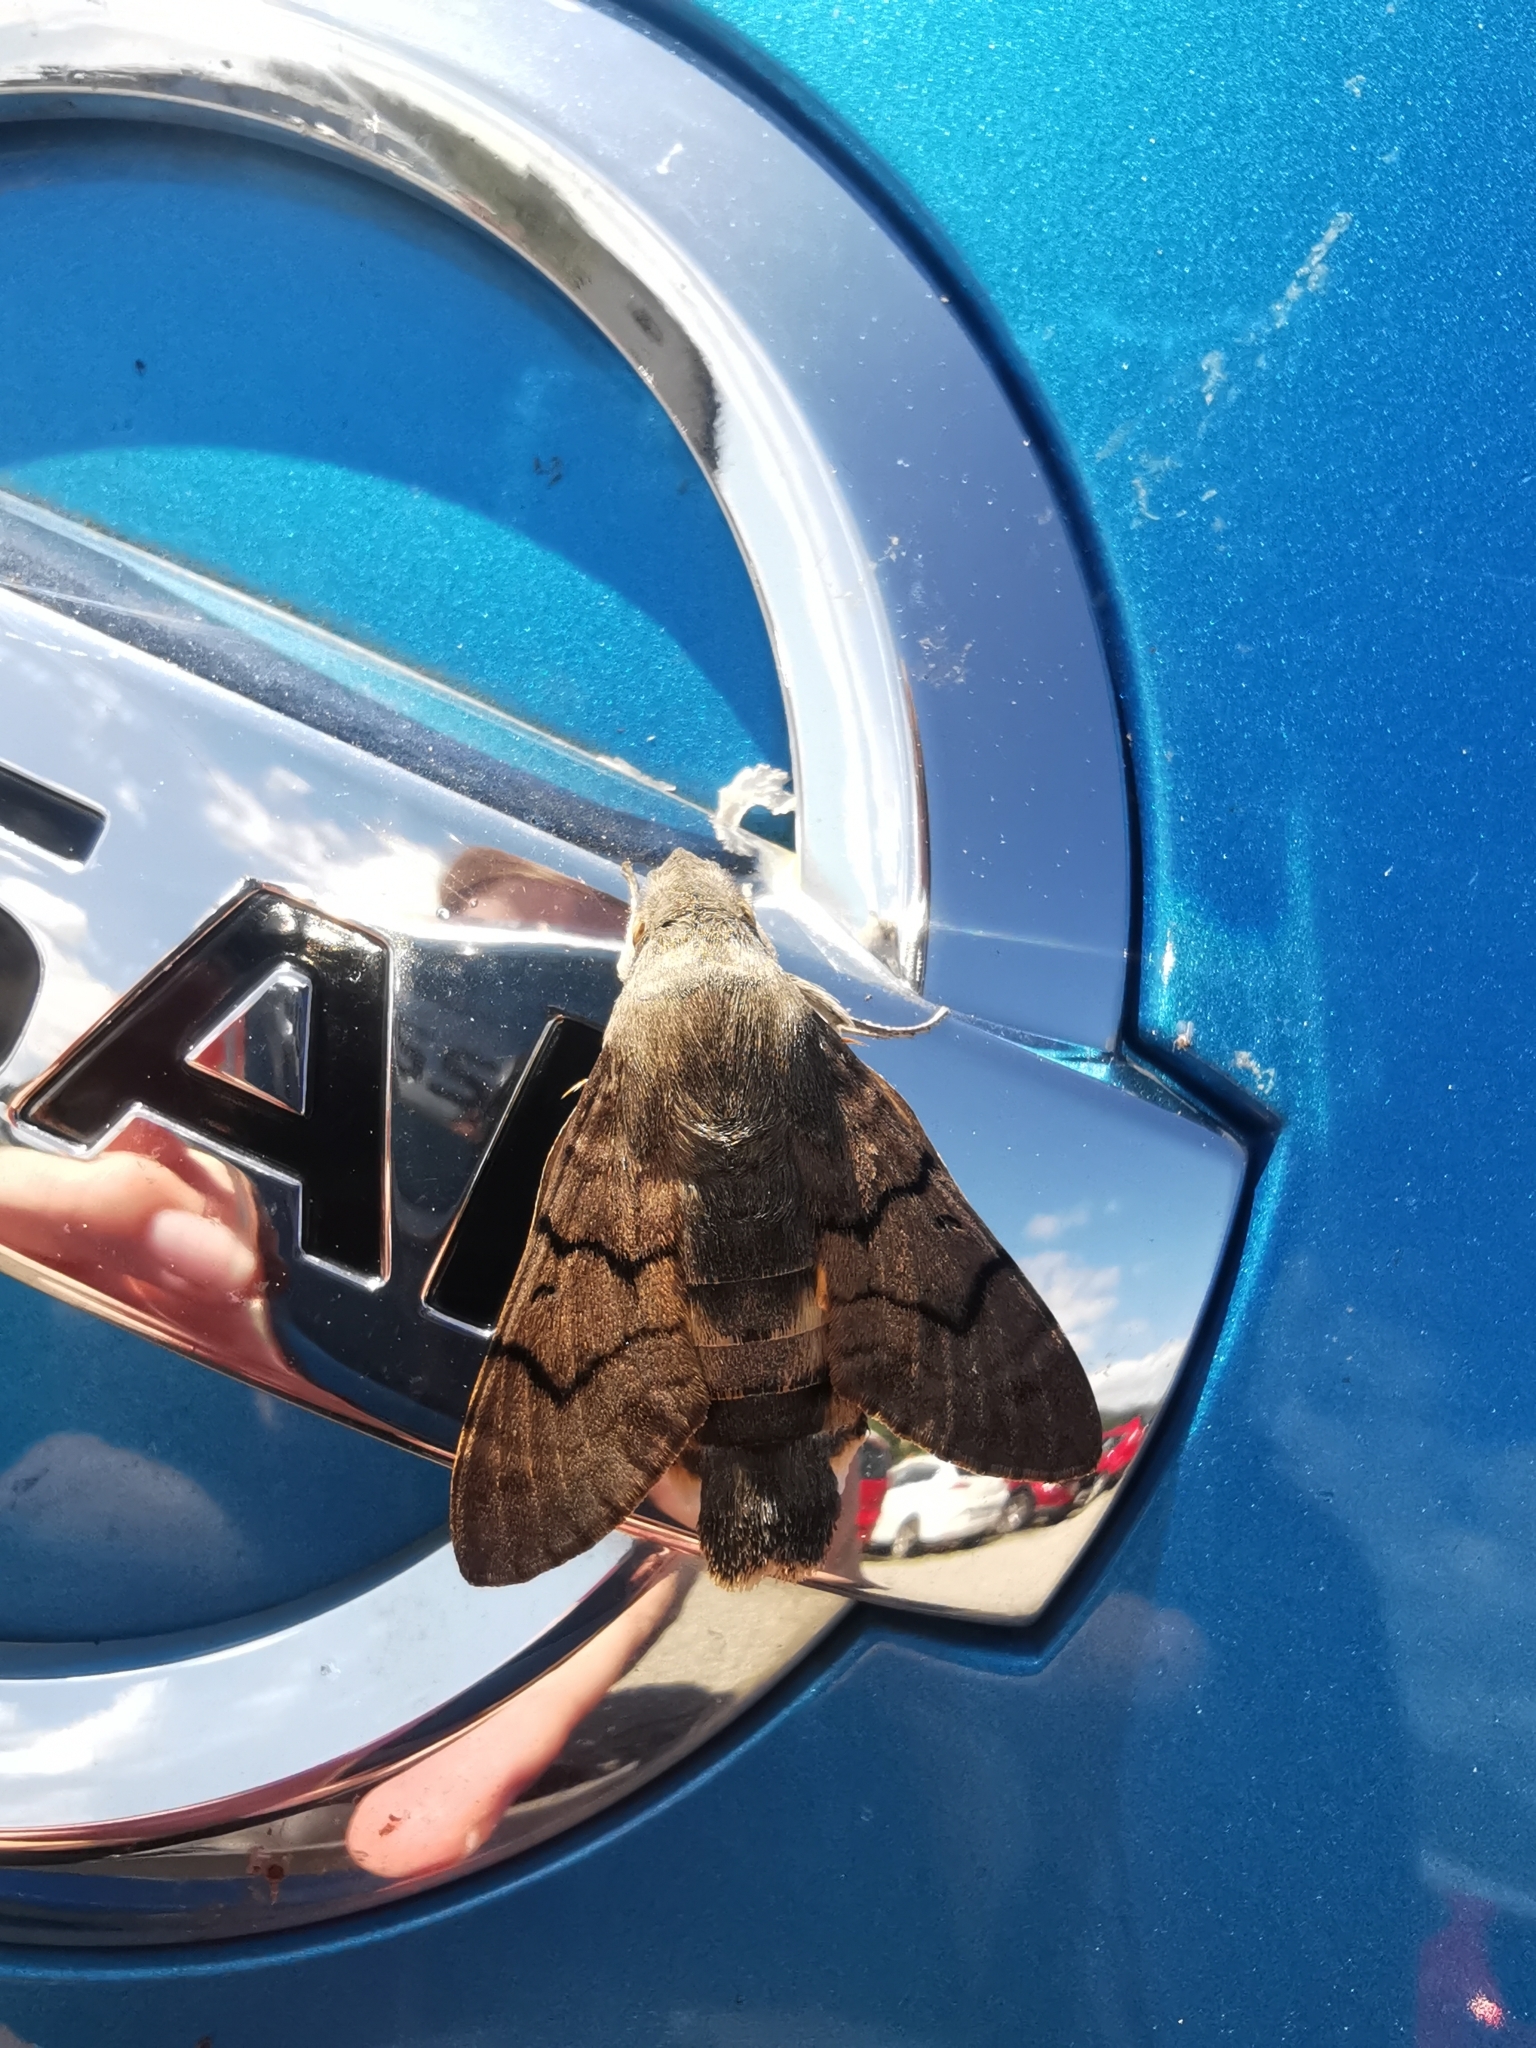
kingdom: Animalia
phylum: Arthropoda
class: Insecta
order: Lepidoptera
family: Sphingidae
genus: Macroglossum
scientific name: Macroglossum stellatarum
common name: Humming-bird hawk-moth
